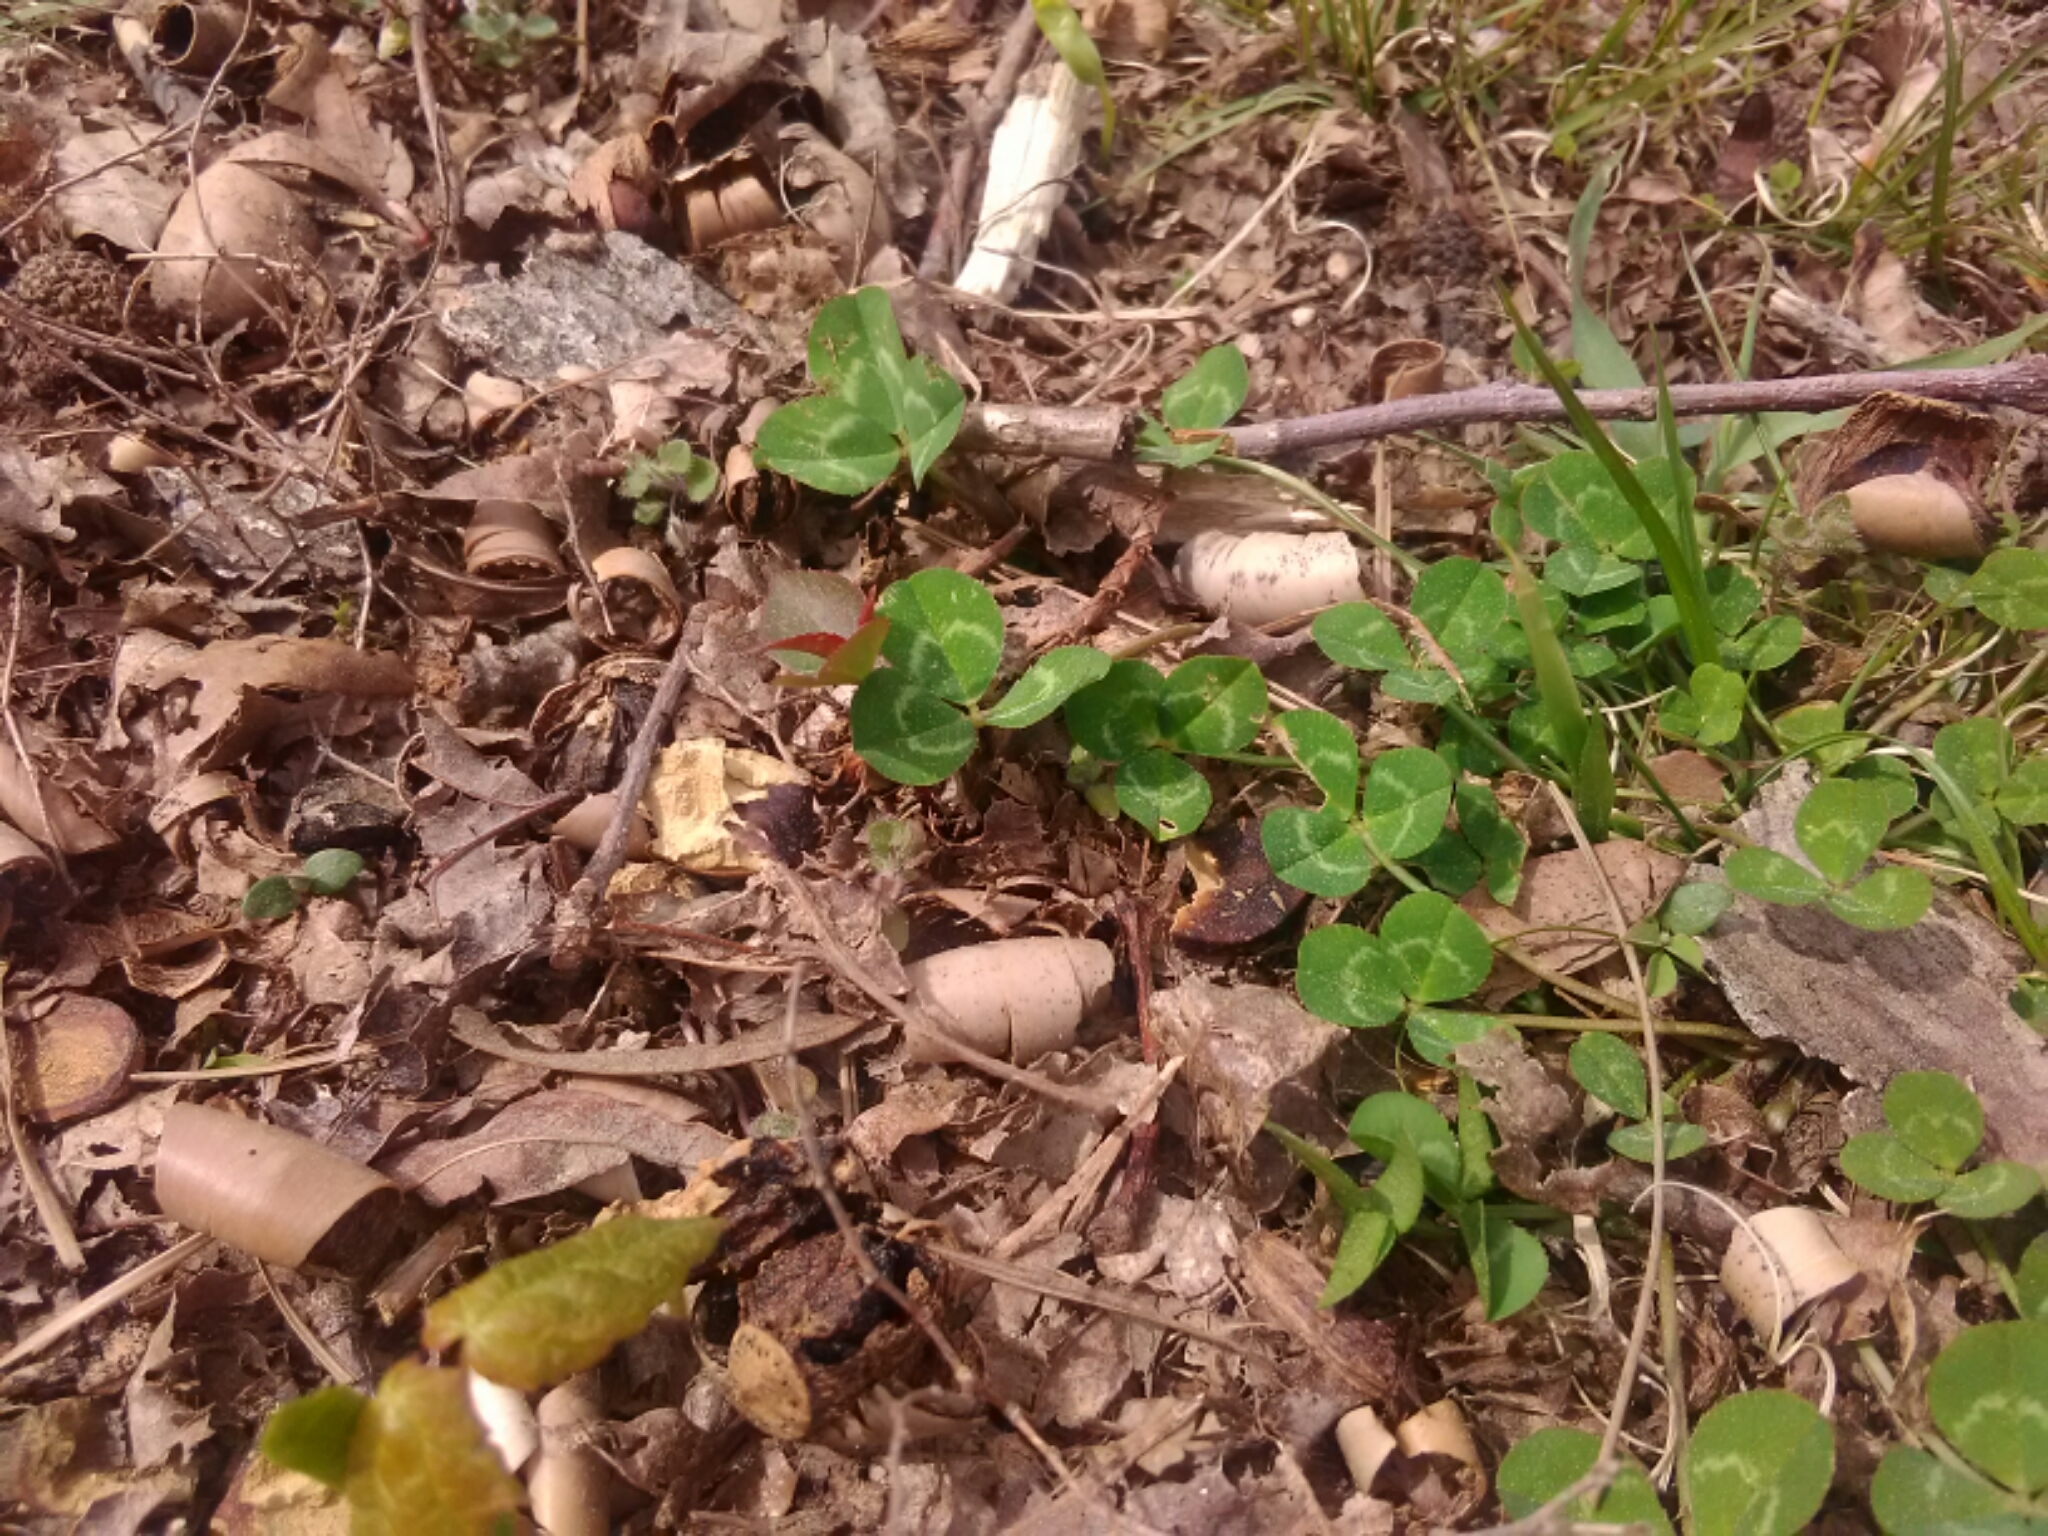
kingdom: Plantae
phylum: Tracheophyta
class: Magnoliopsida
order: Fabales
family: Fabaceae
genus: Trifolium
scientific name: Trifolium repens
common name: White clover
